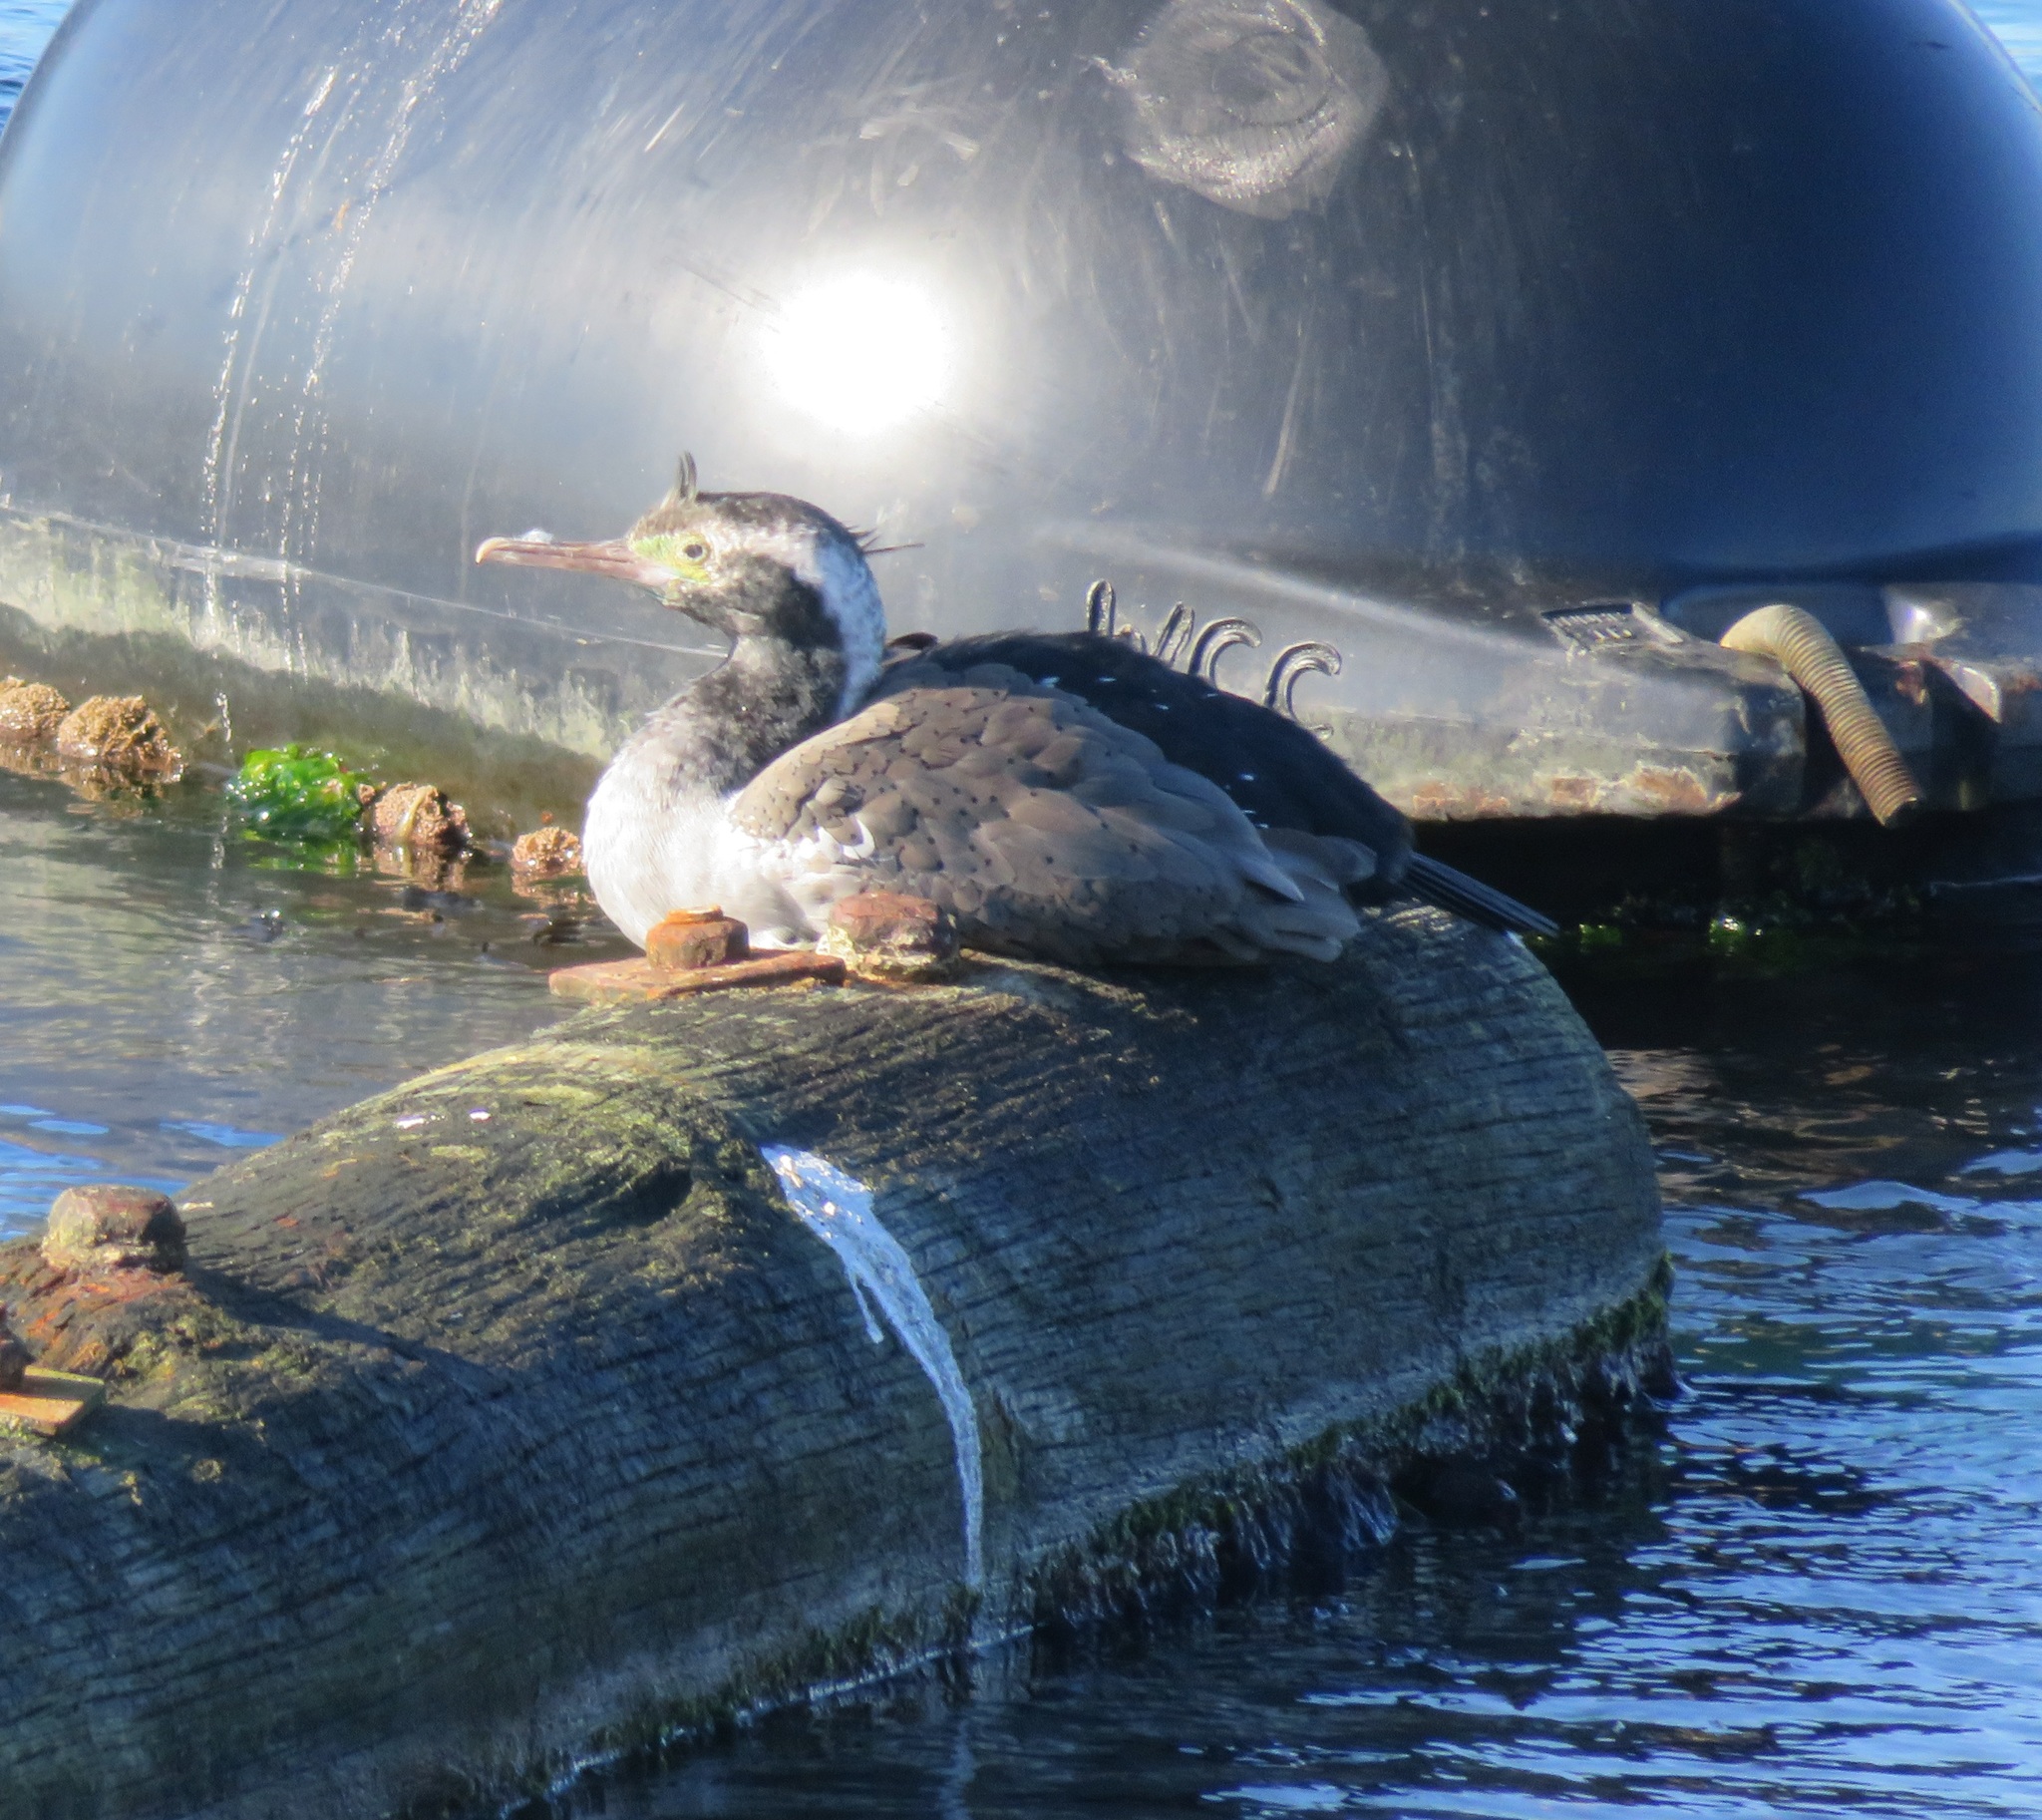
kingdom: Animalia
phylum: Chordata
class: Aves
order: Suliformes
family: Phalacrocoracidae
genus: Phalacrocorax
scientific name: Phalacrocorax punctatus
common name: Spotted shag
